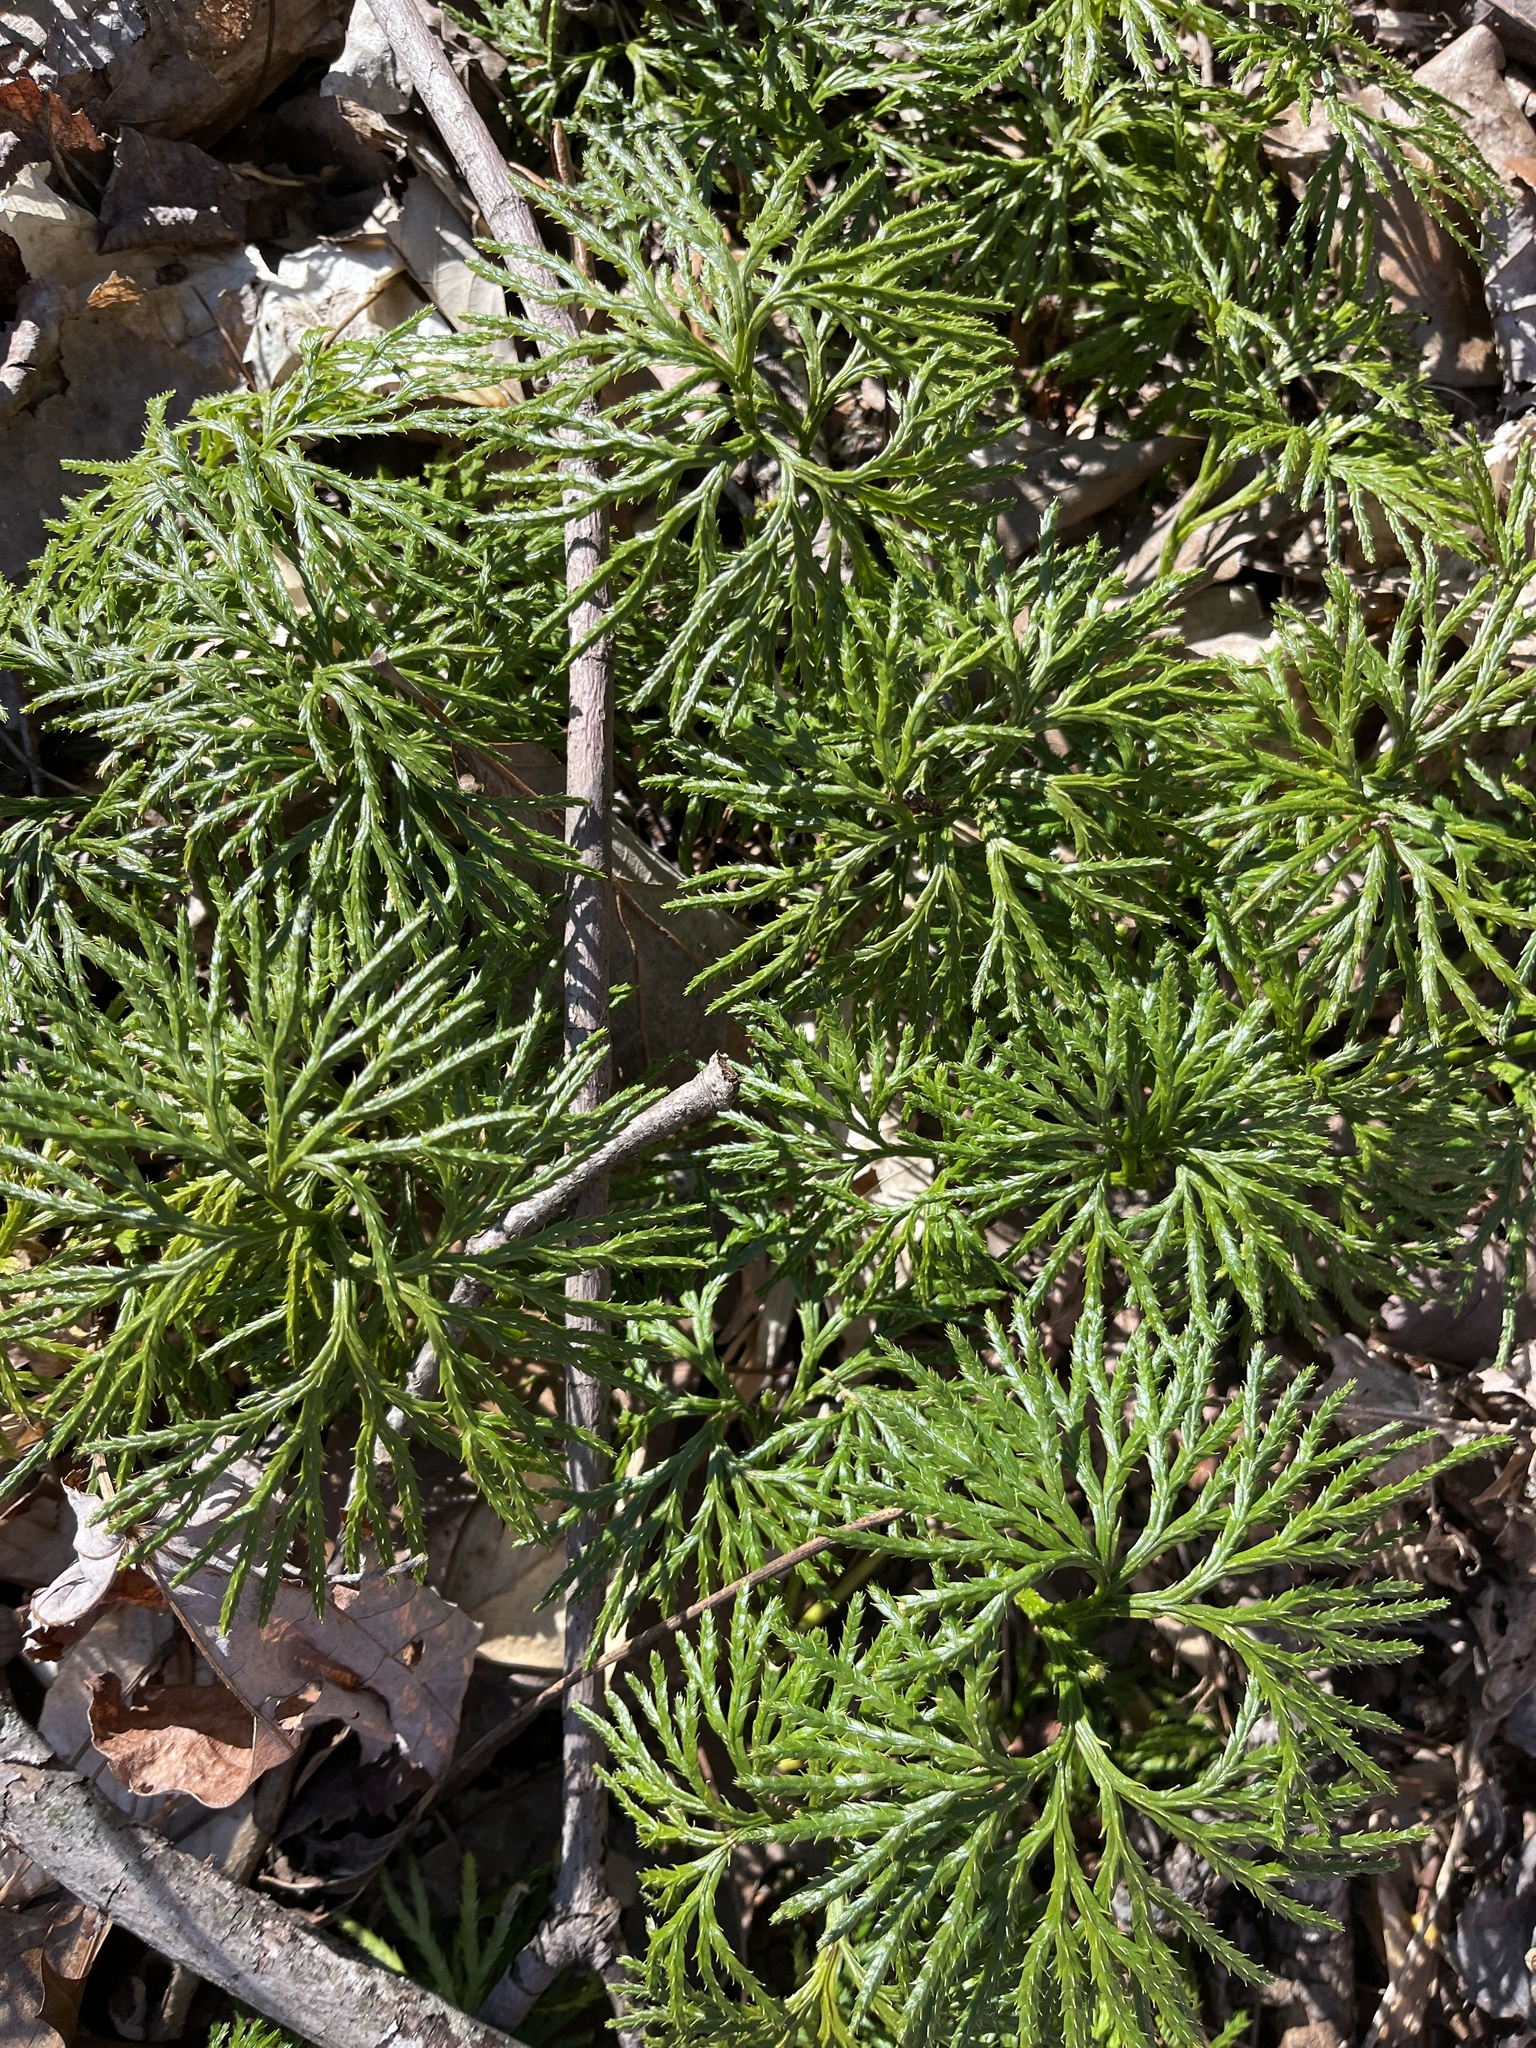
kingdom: Plantae
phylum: Tracheophyta
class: Lycopodiopsida
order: Lycopodiales
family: Lycopodiaceae
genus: Diphasiastrum
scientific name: Diphasiastrum digitatum
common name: Southern running-pine
